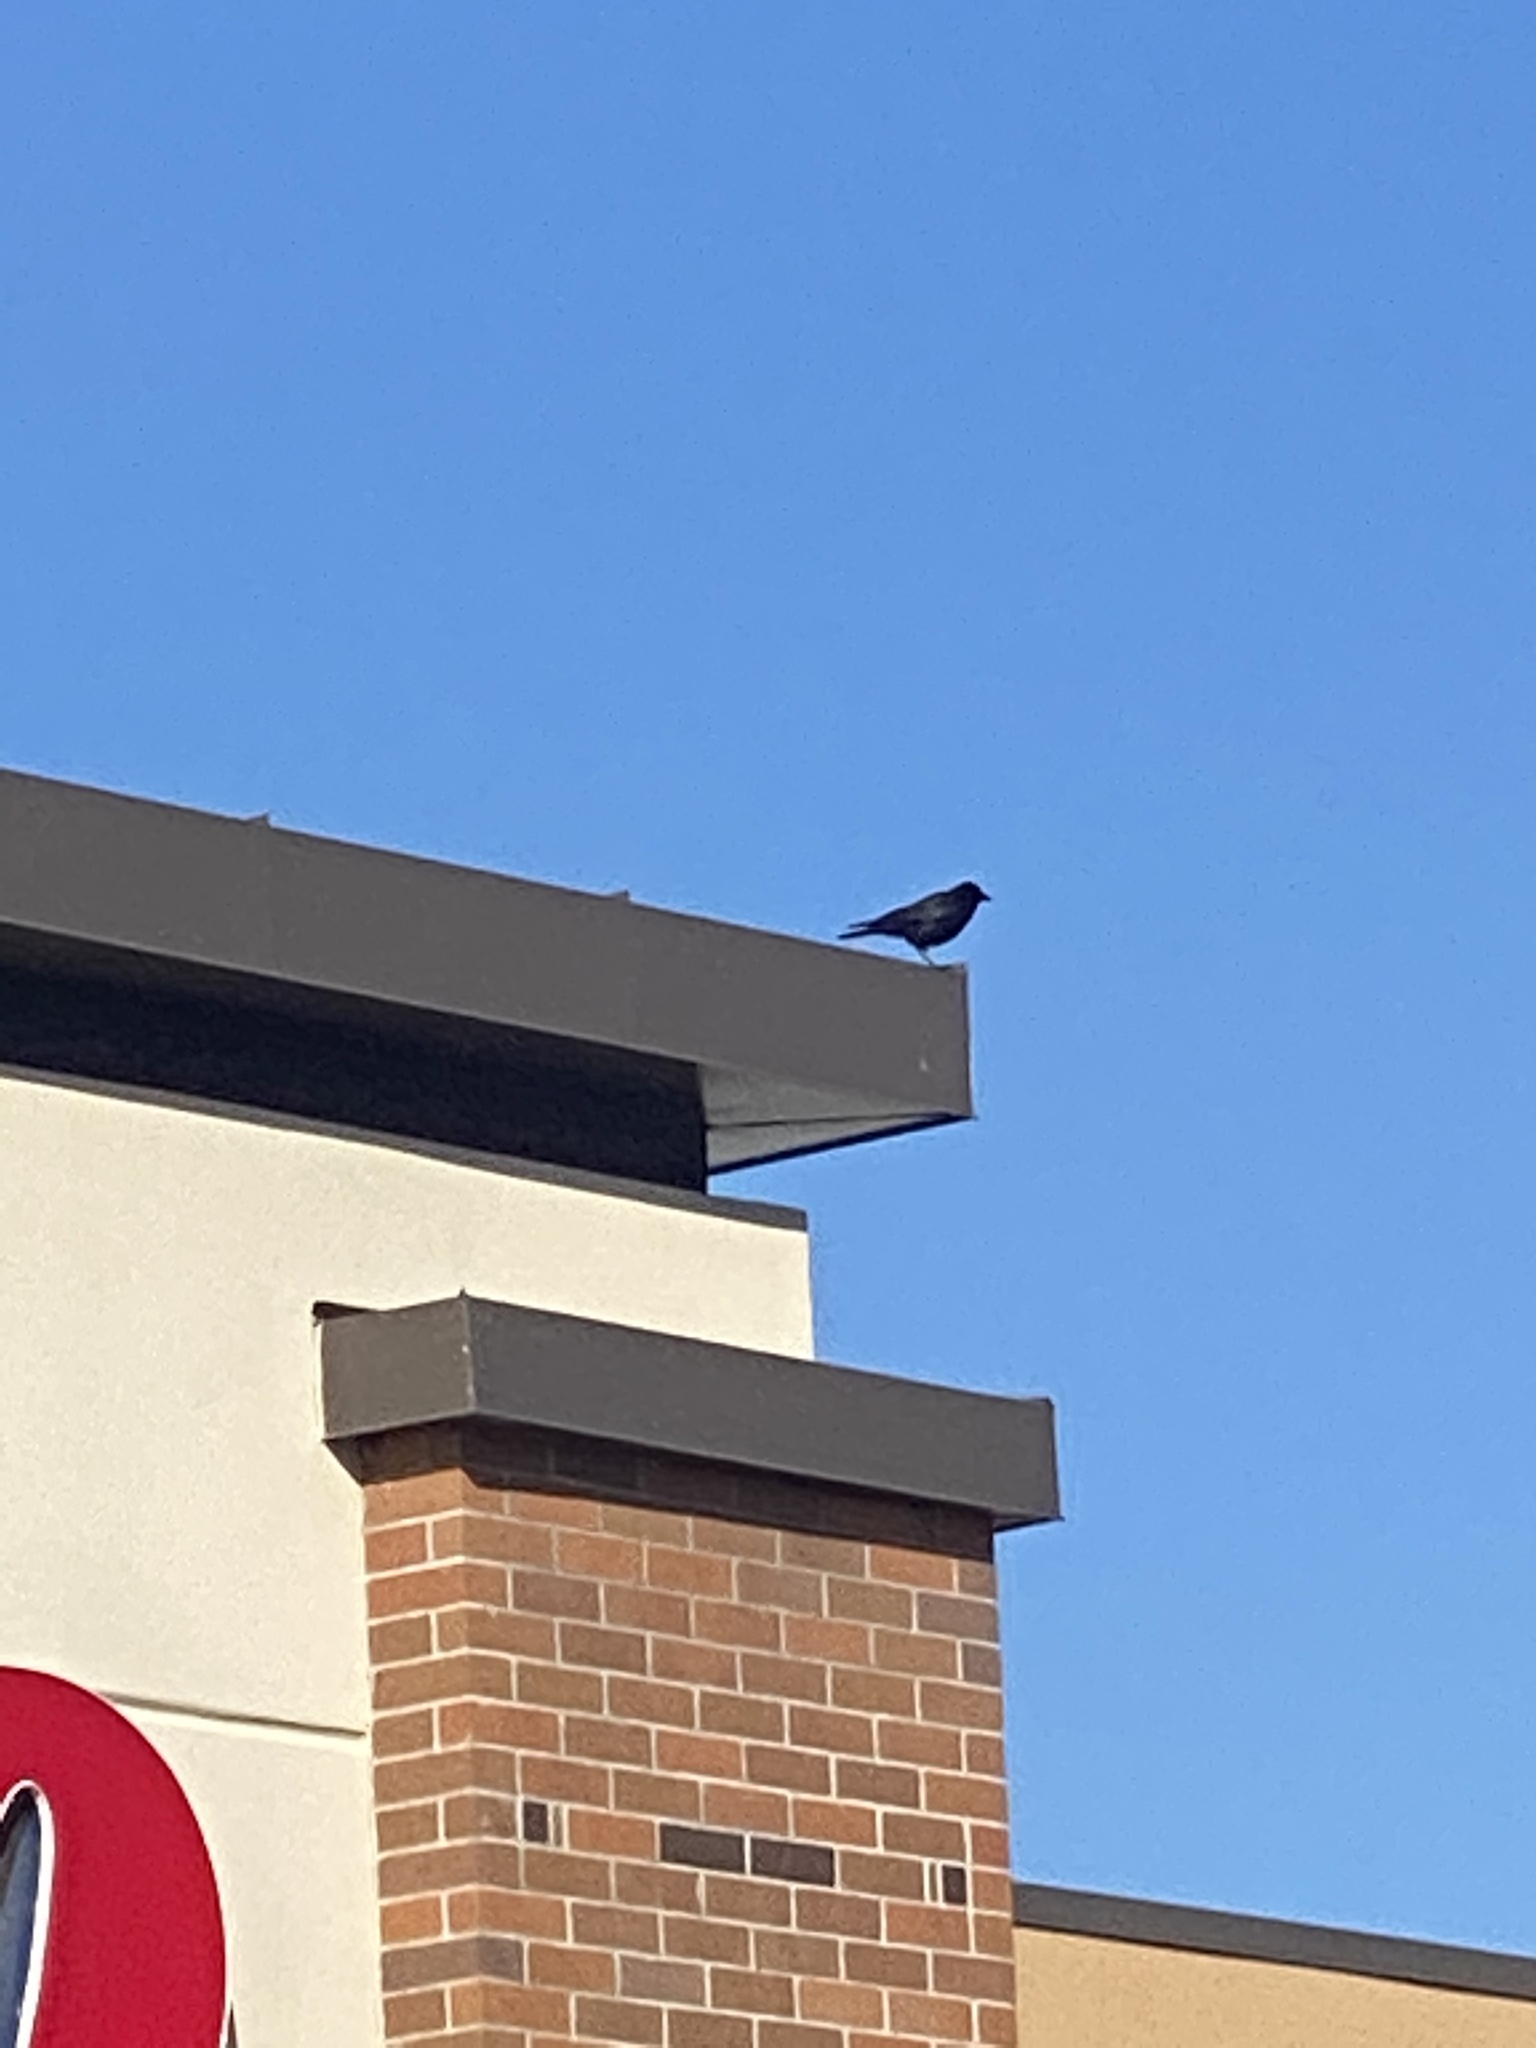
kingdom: Animalia
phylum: Chordata
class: Aves
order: Passeriformes
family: Corvidae
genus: Corvus
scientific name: Corvus brachyrhynchos
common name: American crow
